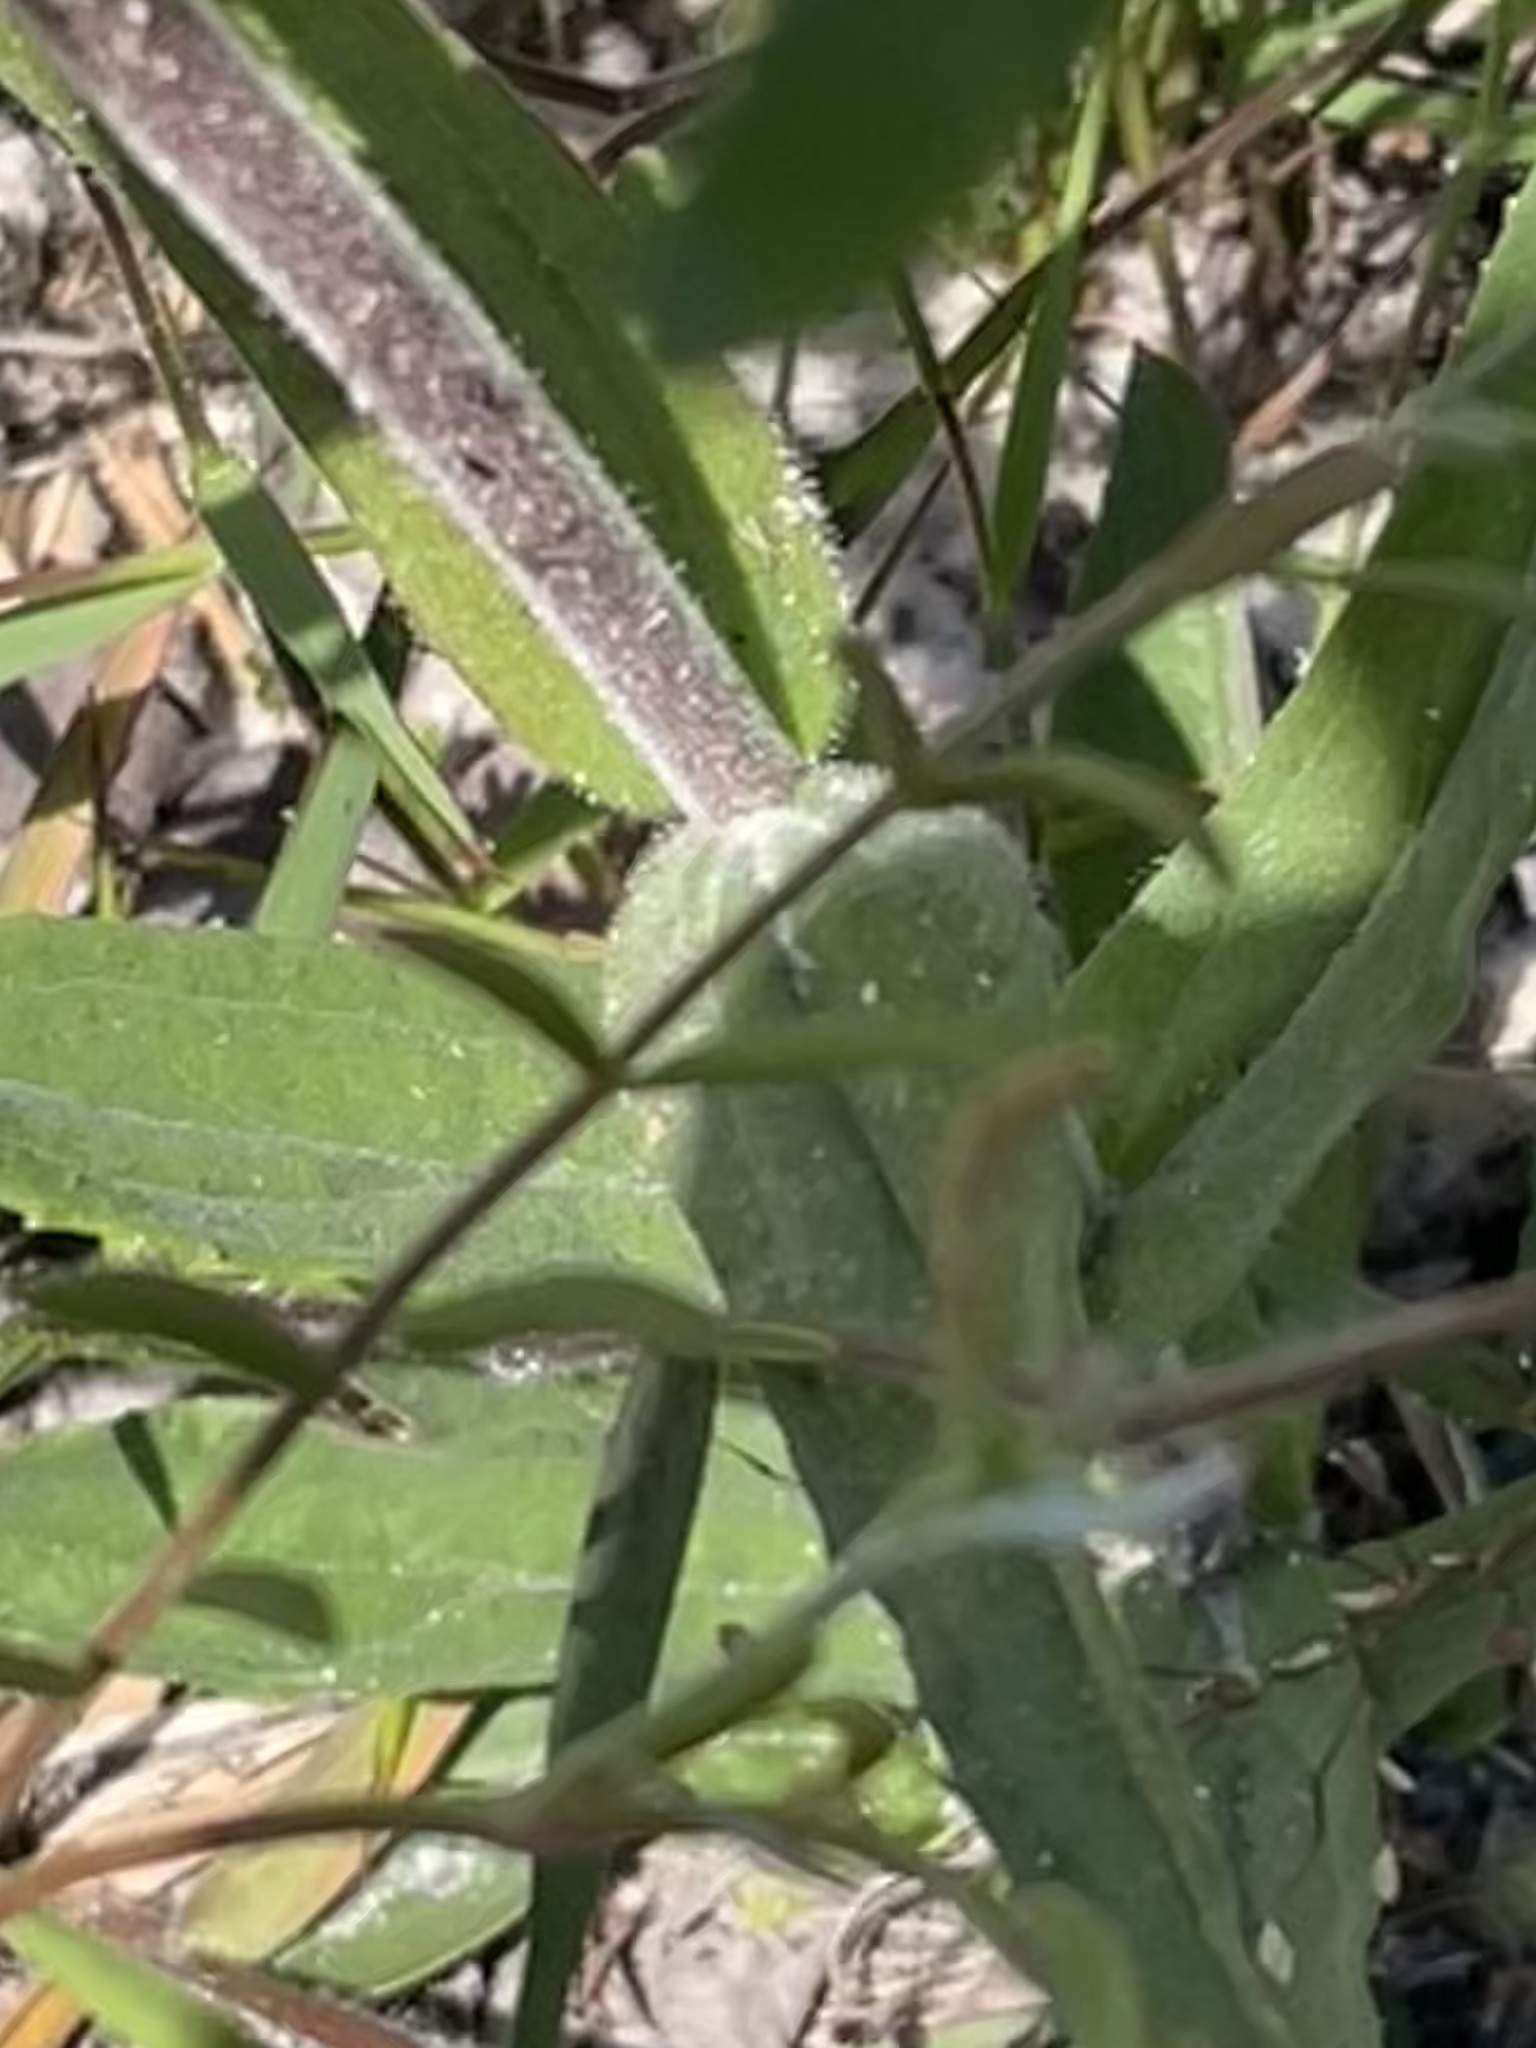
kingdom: Plantae
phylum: Tracheophyta
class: Magnoliopsida
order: Lamiales
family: Plantaginaceae
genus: Penstemon
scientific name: Penstemon australis
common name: Southeastern beardtongue
